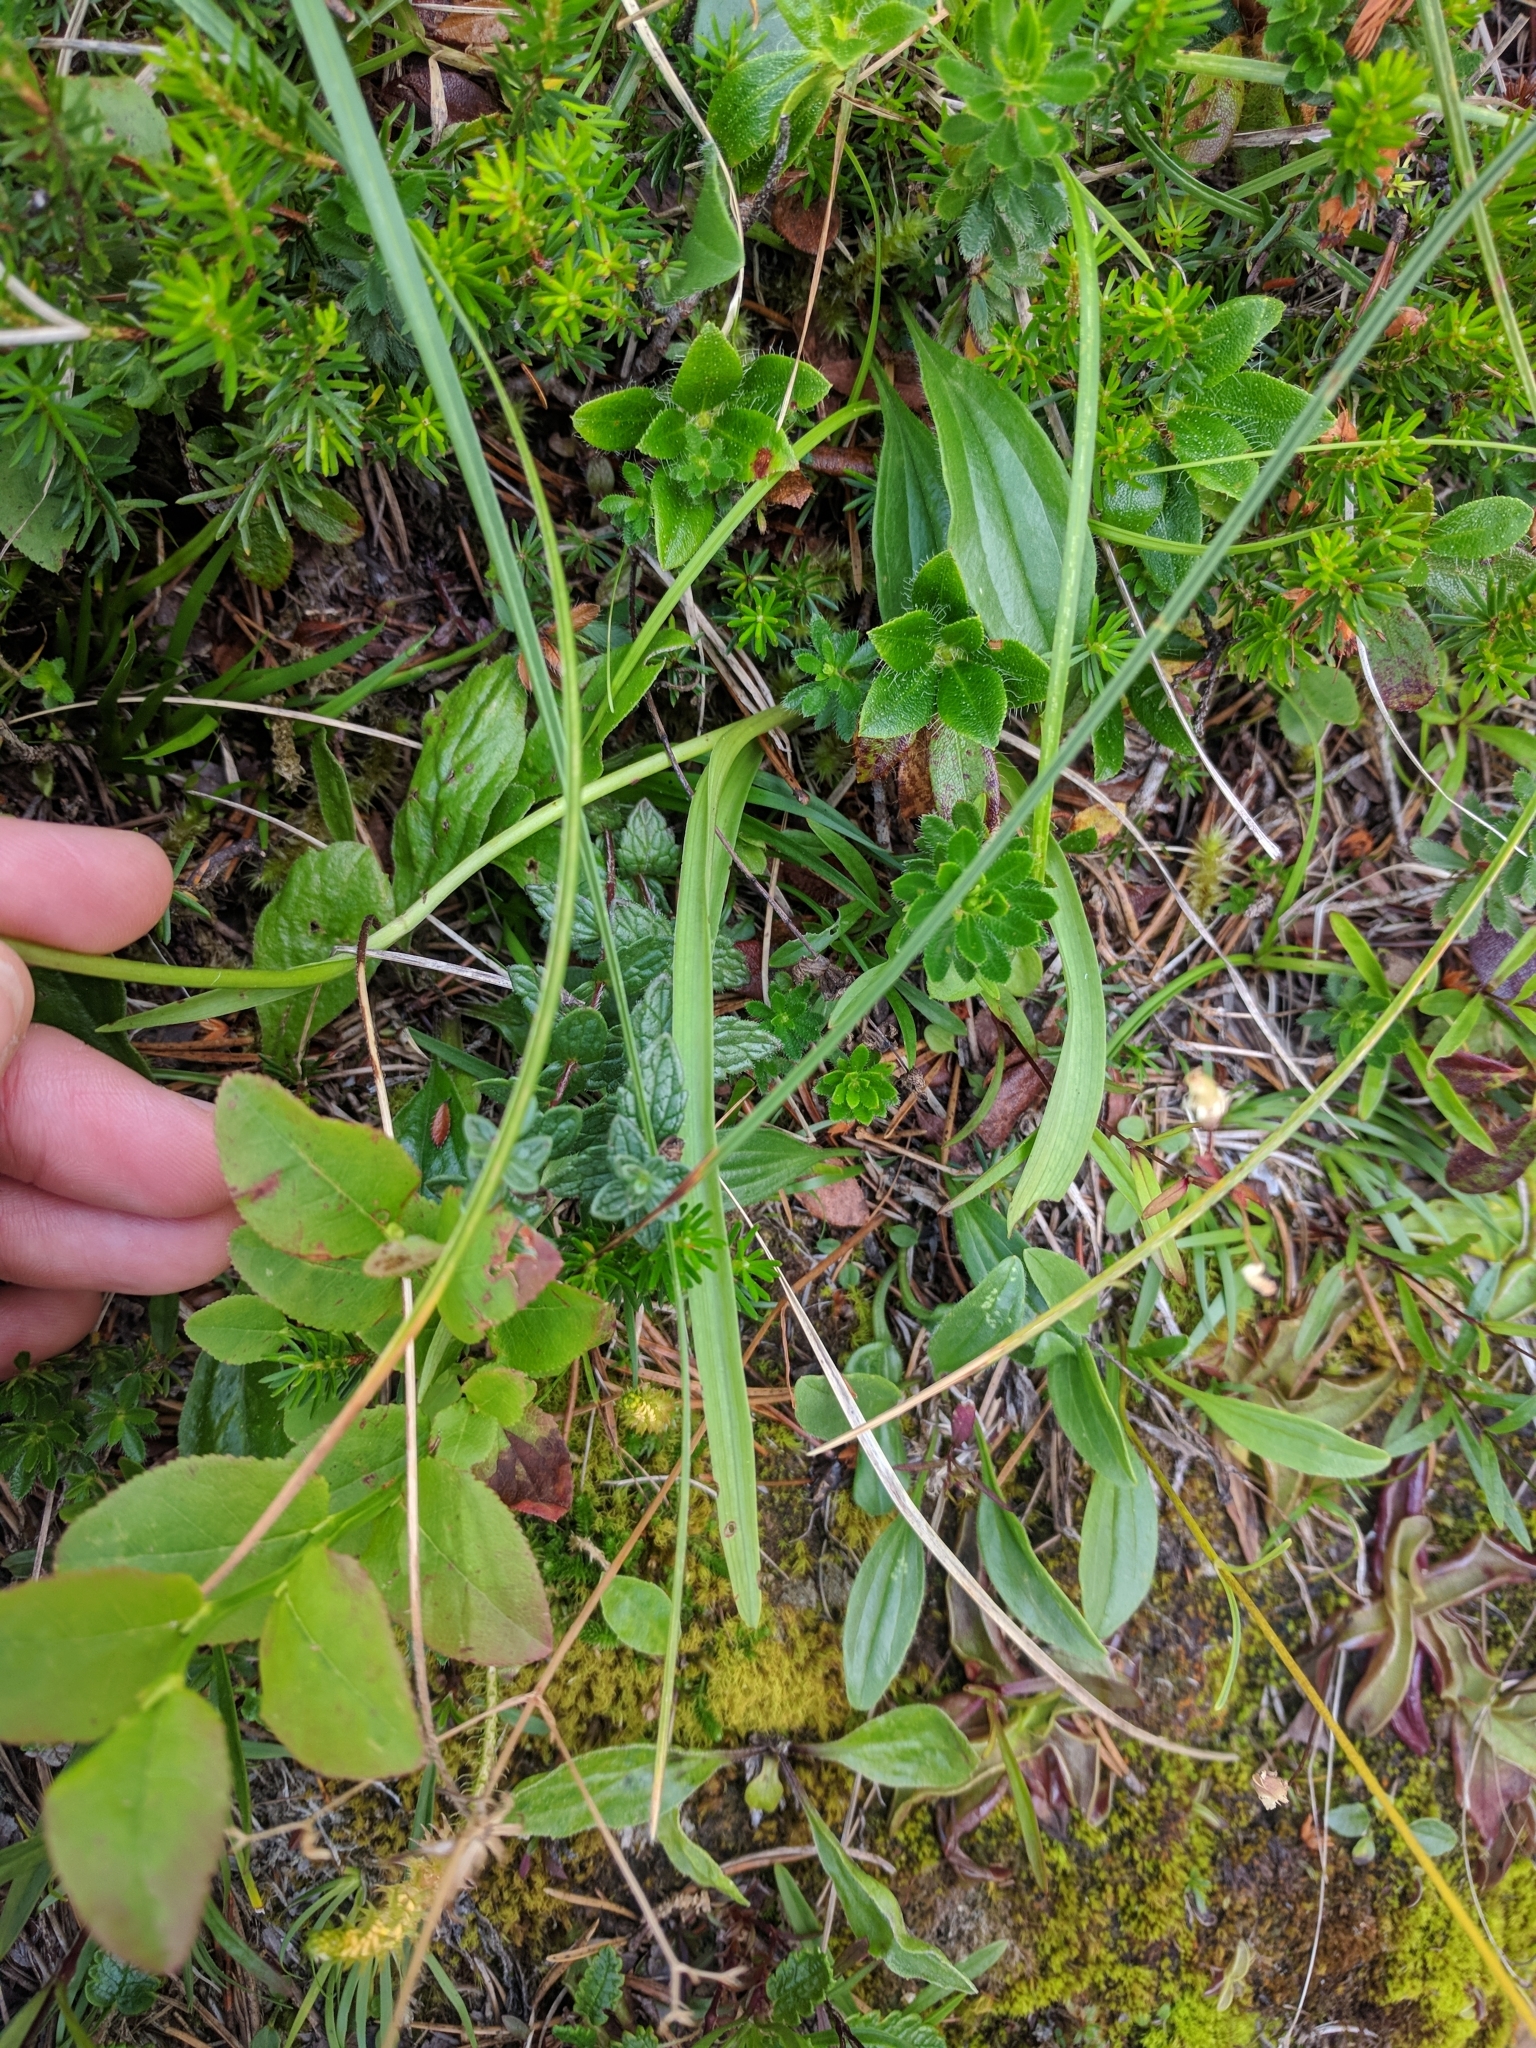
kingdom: Plantae
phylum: Tracheophyta
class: Liliopsida
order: Asparagales
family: Orchidaceae
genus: Gymnadenia
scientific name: Gymnadenia conopsea
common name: Fragrant orchid
